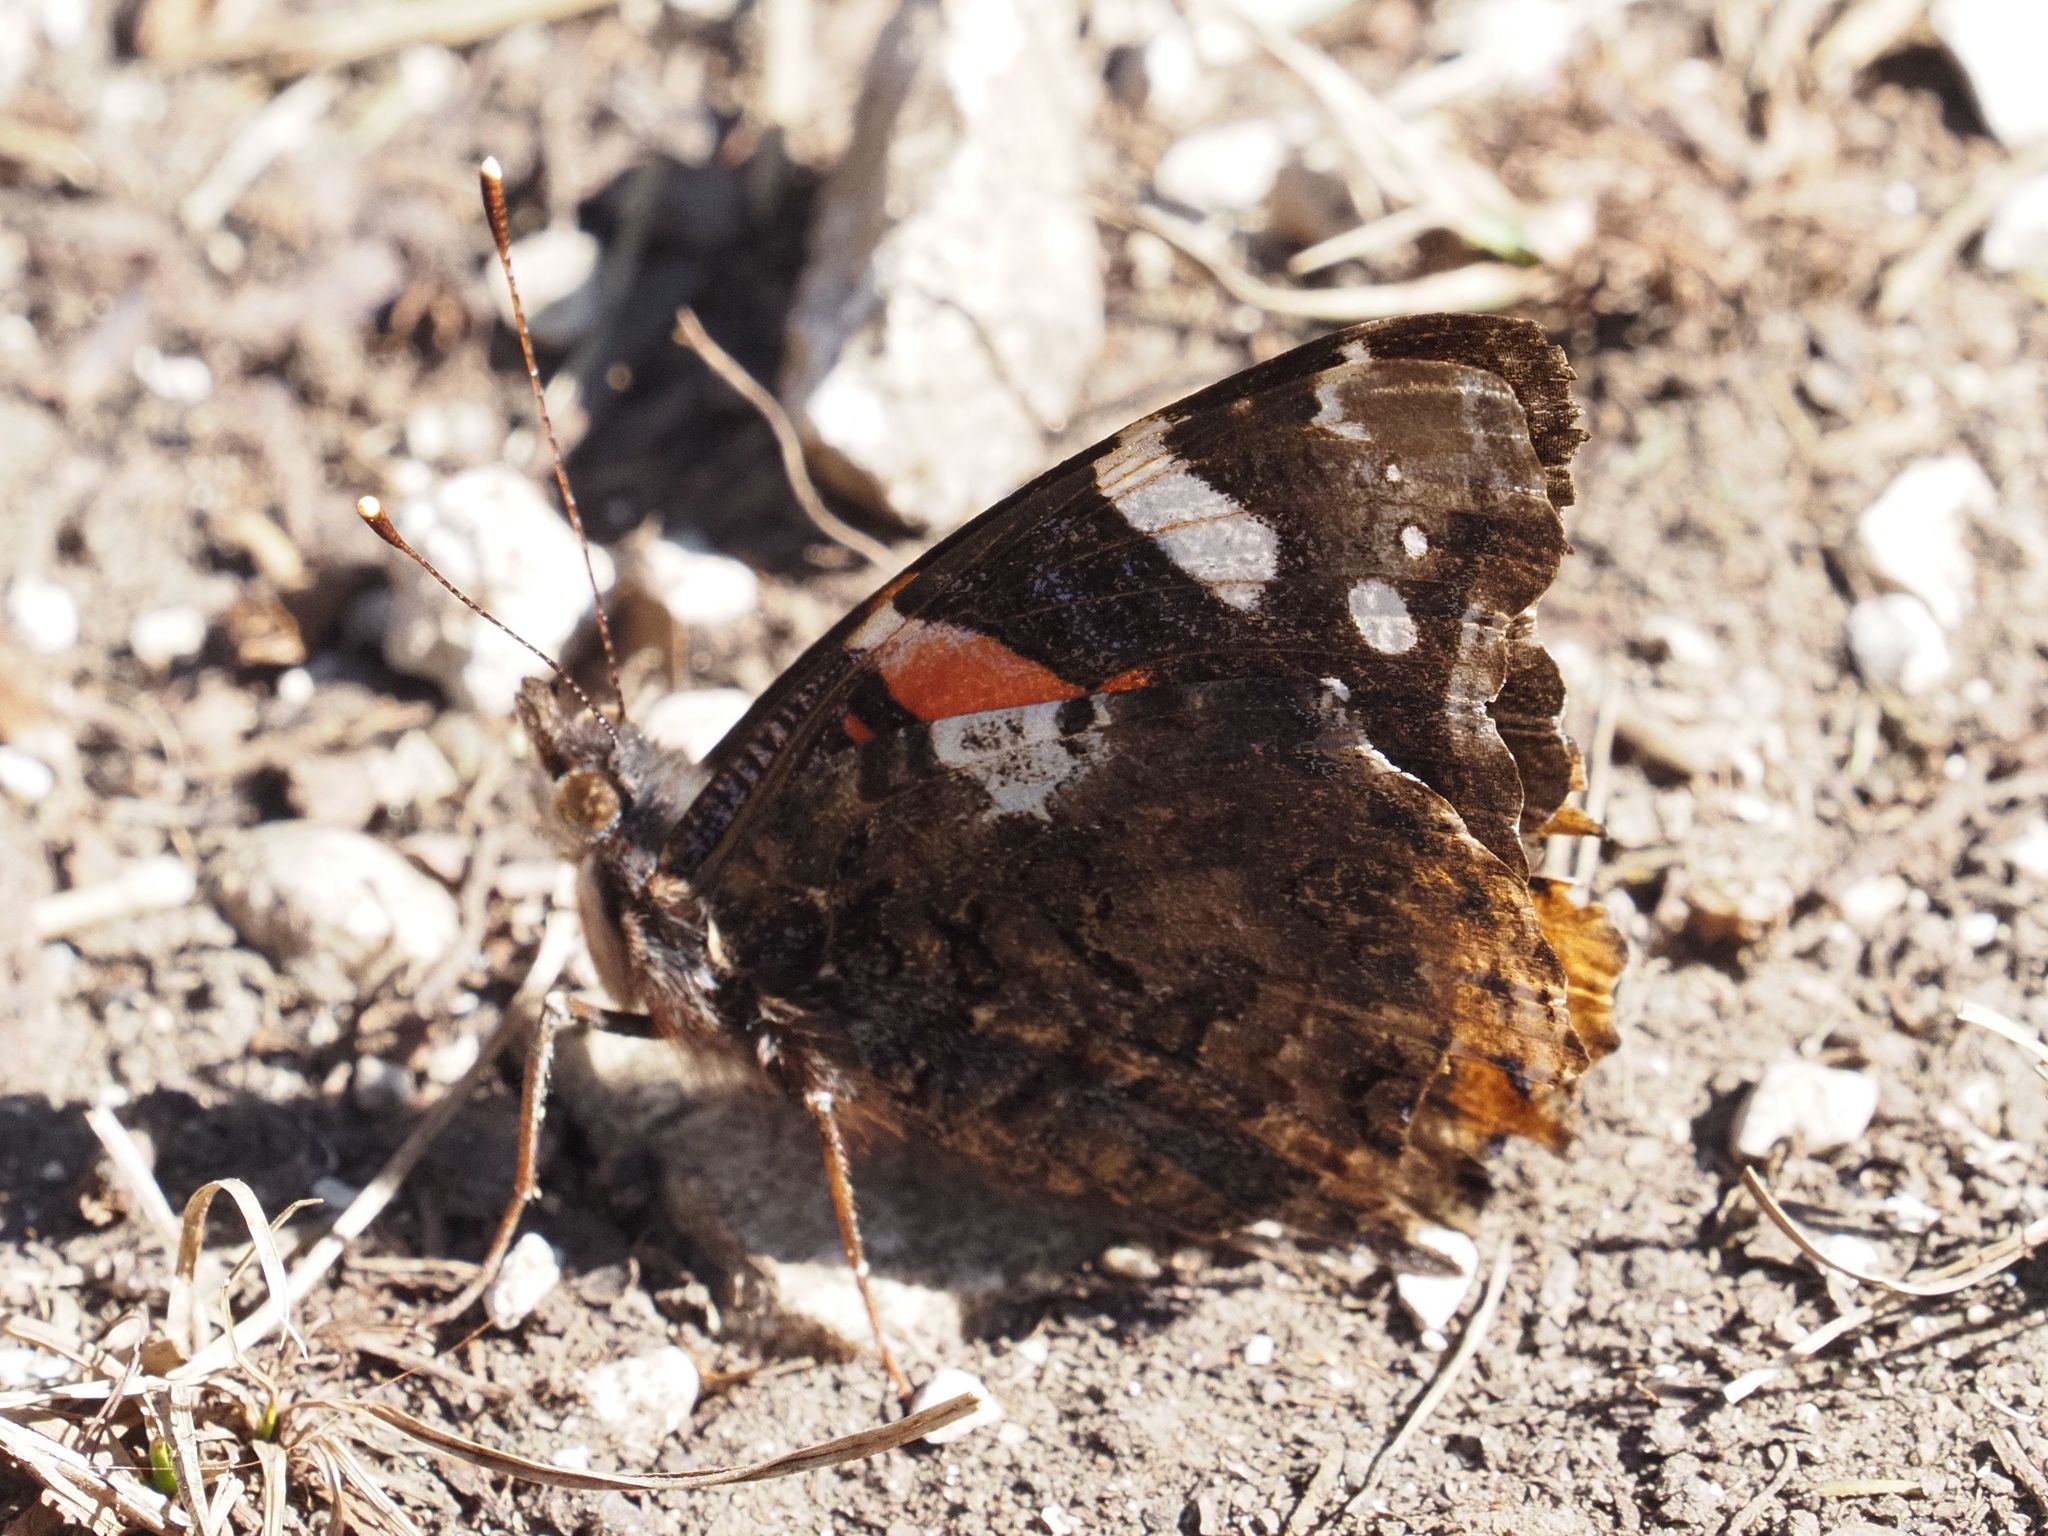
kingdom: Animalia
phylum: Arthropoda
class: Insecta
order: Lepidoptera
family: Nymphalidae
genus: Vanessa
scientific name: Vanessa atalanta
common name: Red admiral
